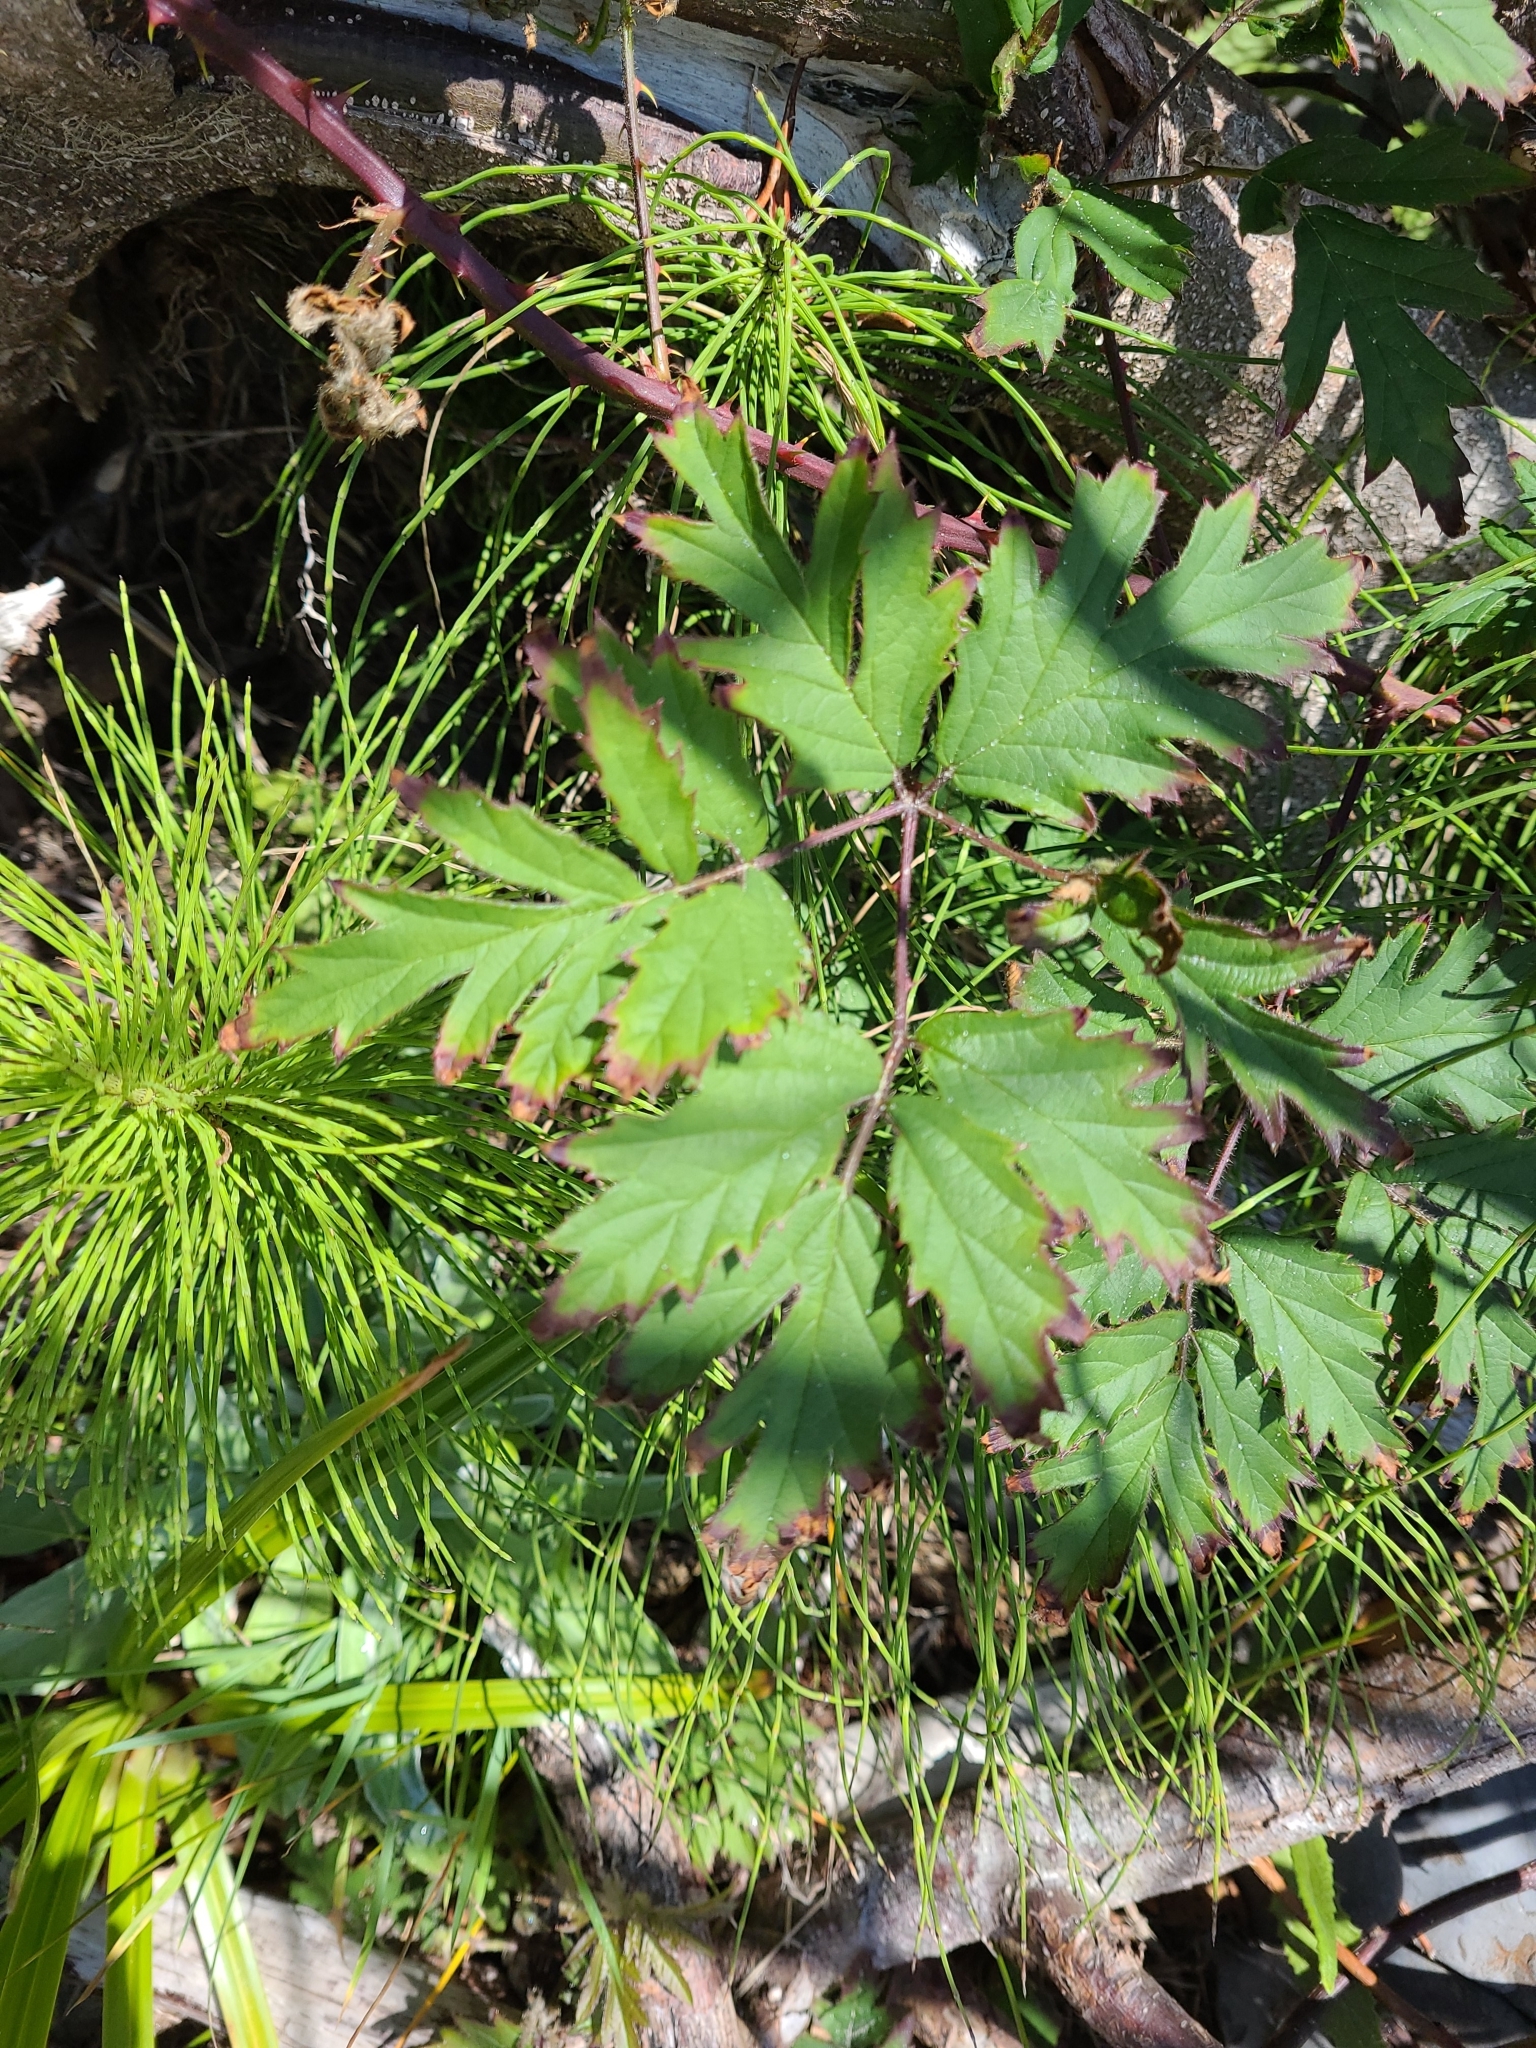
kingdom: Plantae
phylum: Tracheophyta
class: Magnoliopsida
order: Rosales
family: Rosaceae
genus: Rubus
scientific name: Rubus laciniatus
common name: Evergreen blackberry
